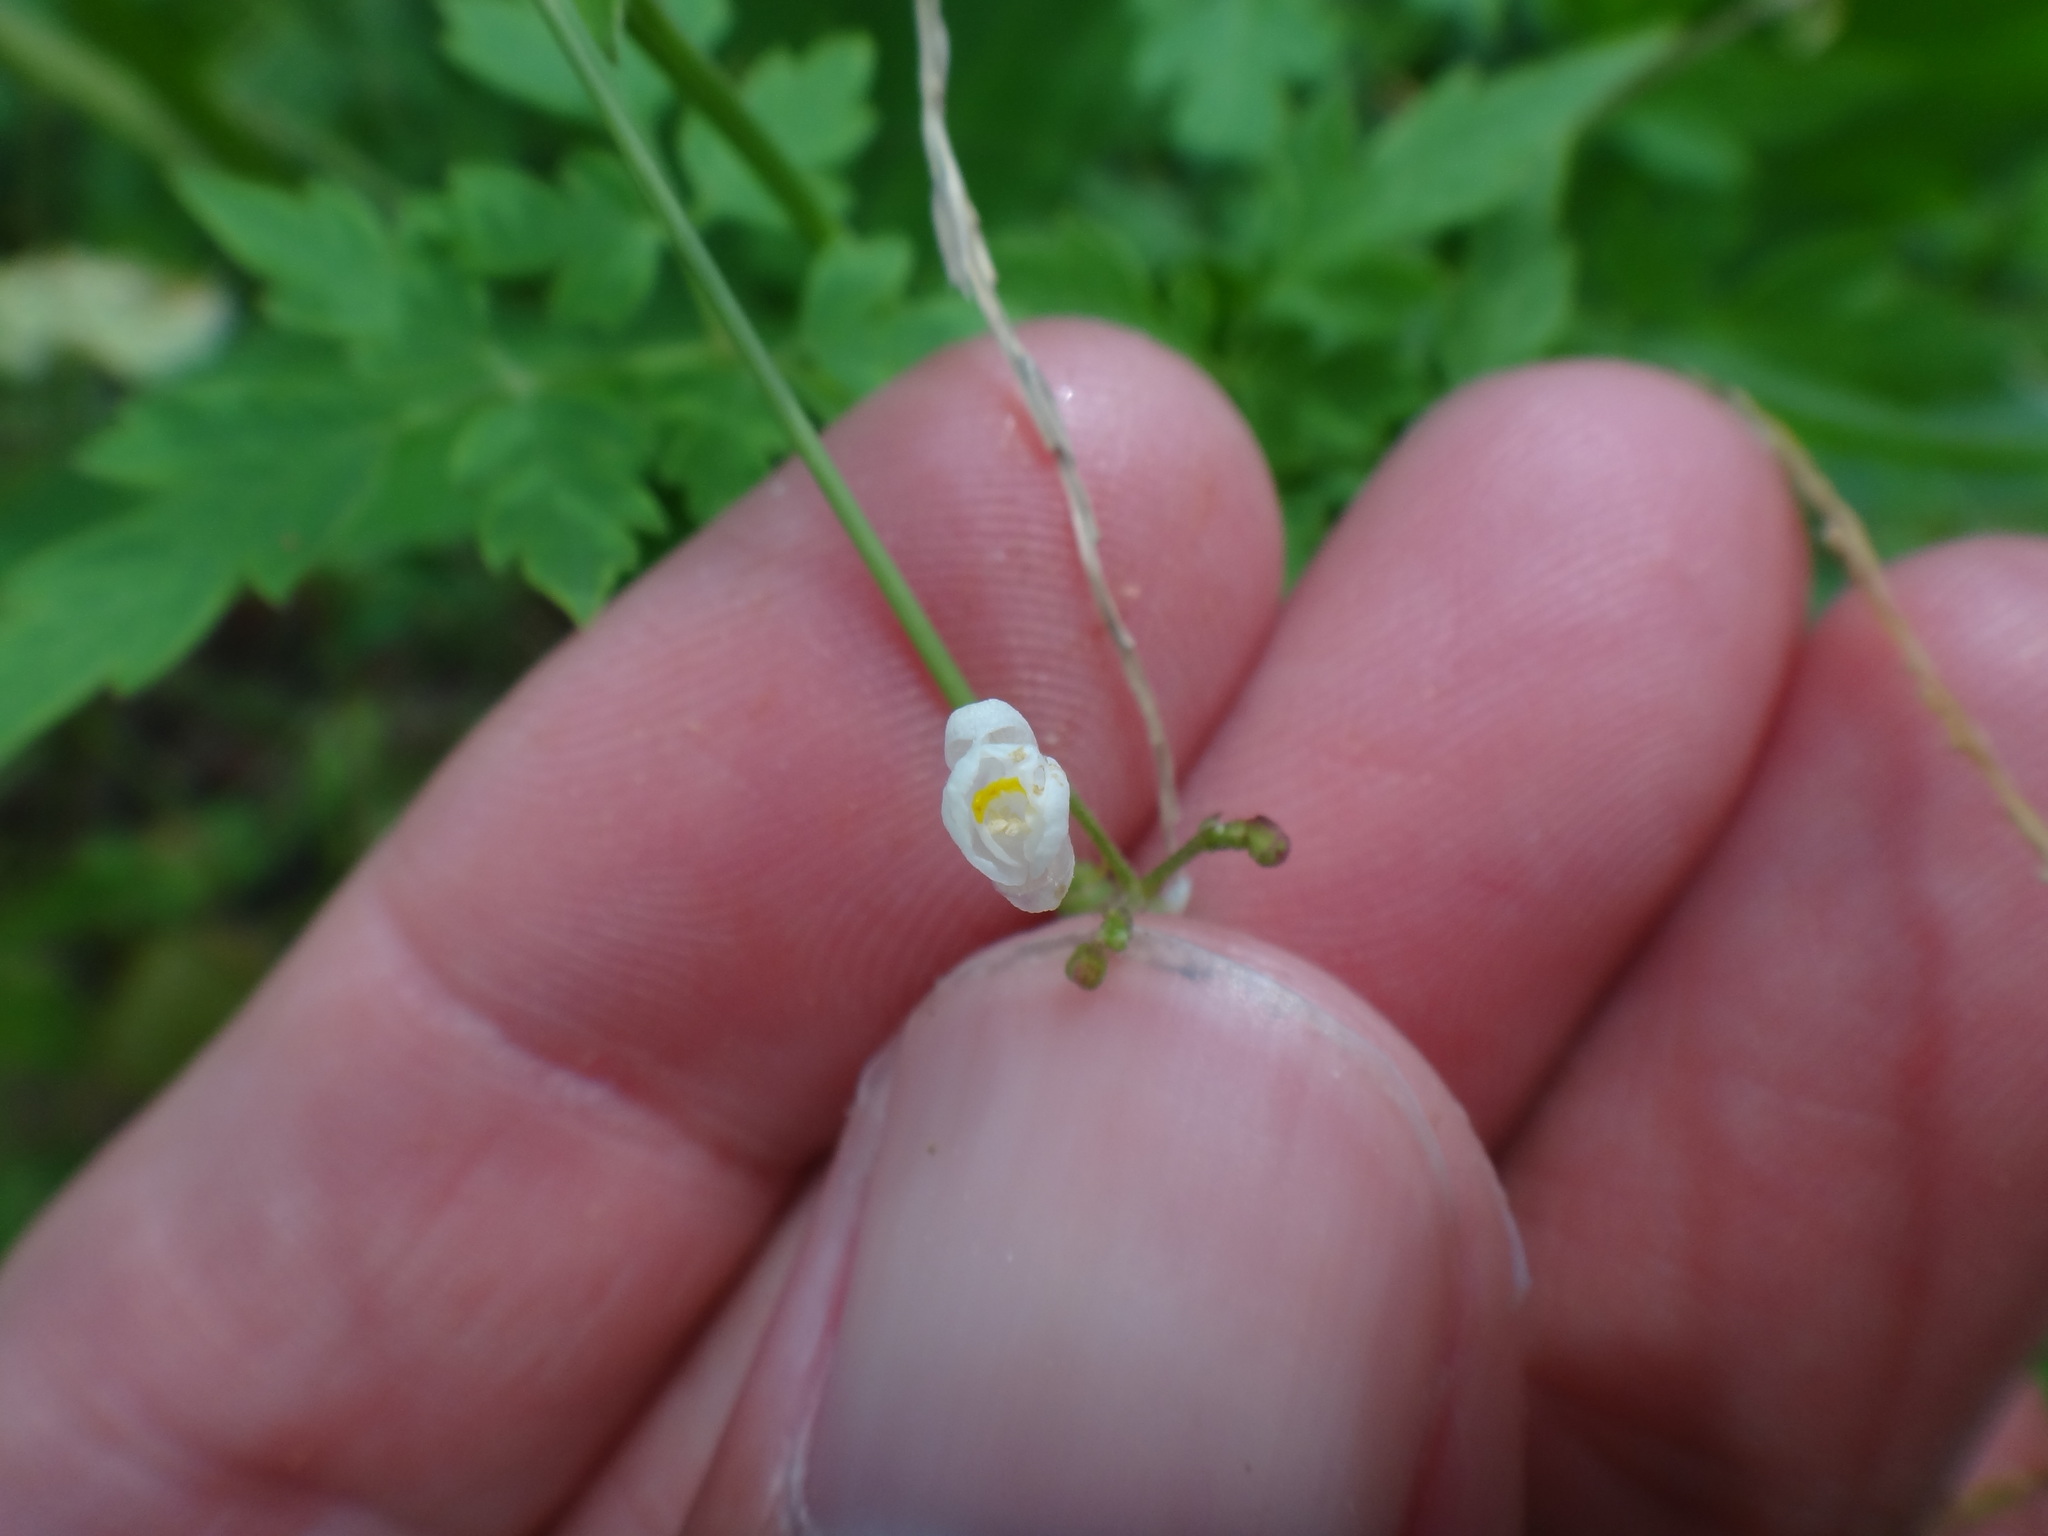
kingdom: Plantae
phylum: Tracheophyta
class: Magnoliopsida
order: Sapindales
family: Sapindaceae
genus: Cardiospermum
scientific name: Cardiospermum halicacabum
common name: Balloon vine
